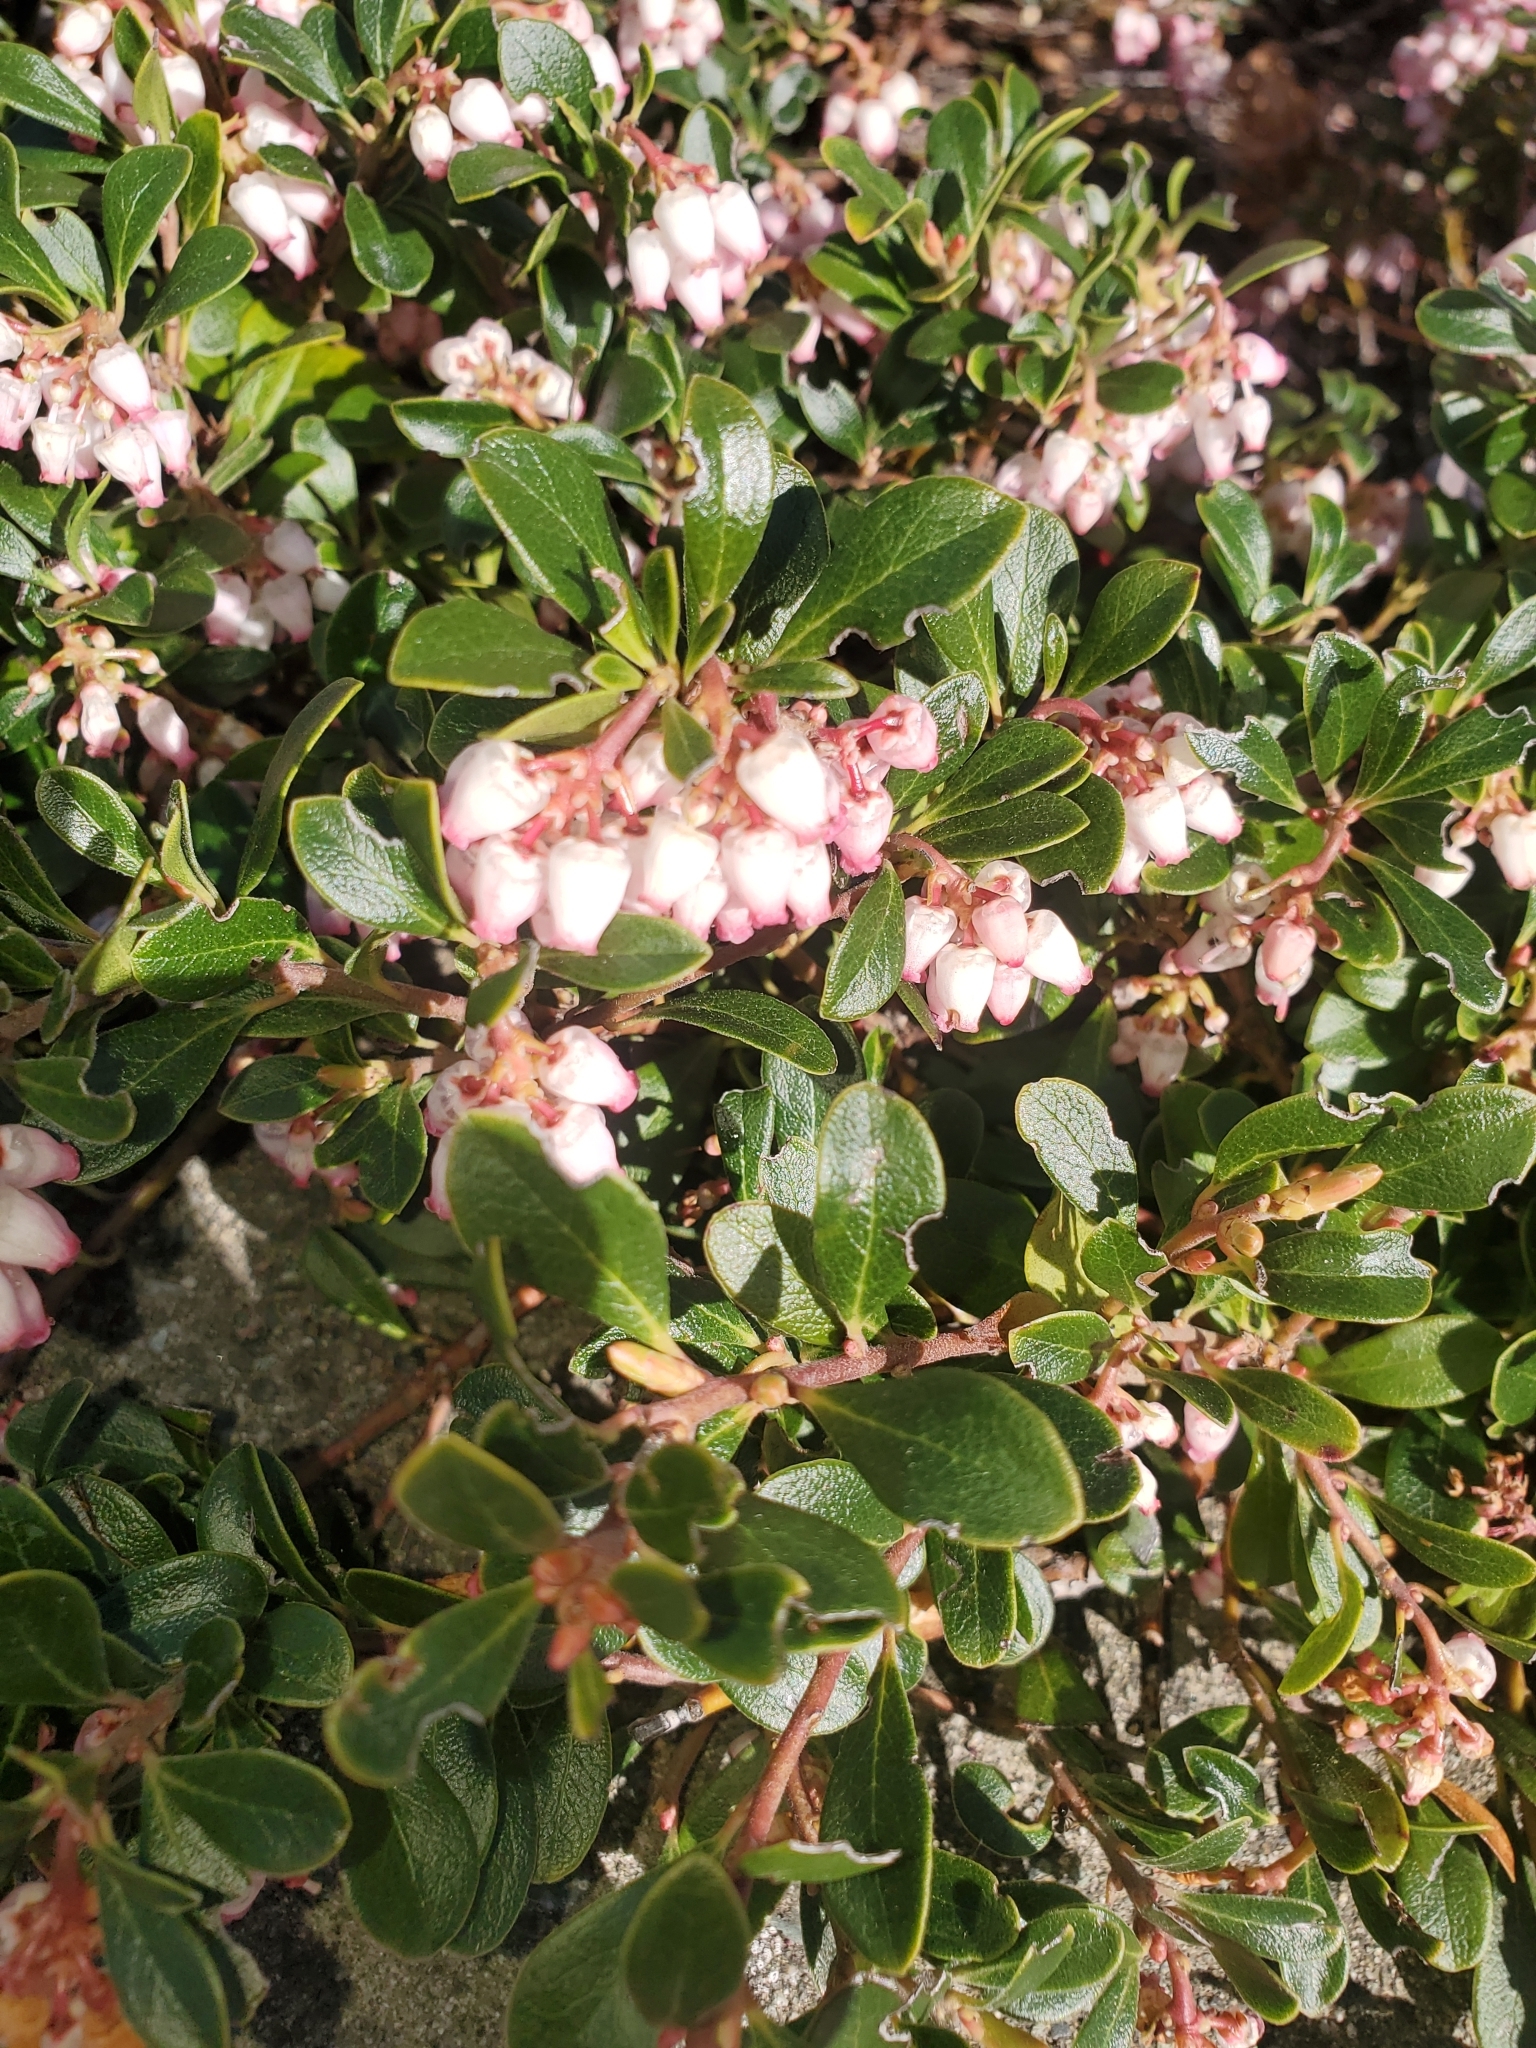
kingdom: Plantae
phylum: Tracheophyta
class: Magnoliopsida
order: Ericales
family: Ericaceae
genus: Arctostaphylos
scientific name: Arctostaphylos uva-ursi
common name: Bearberry
